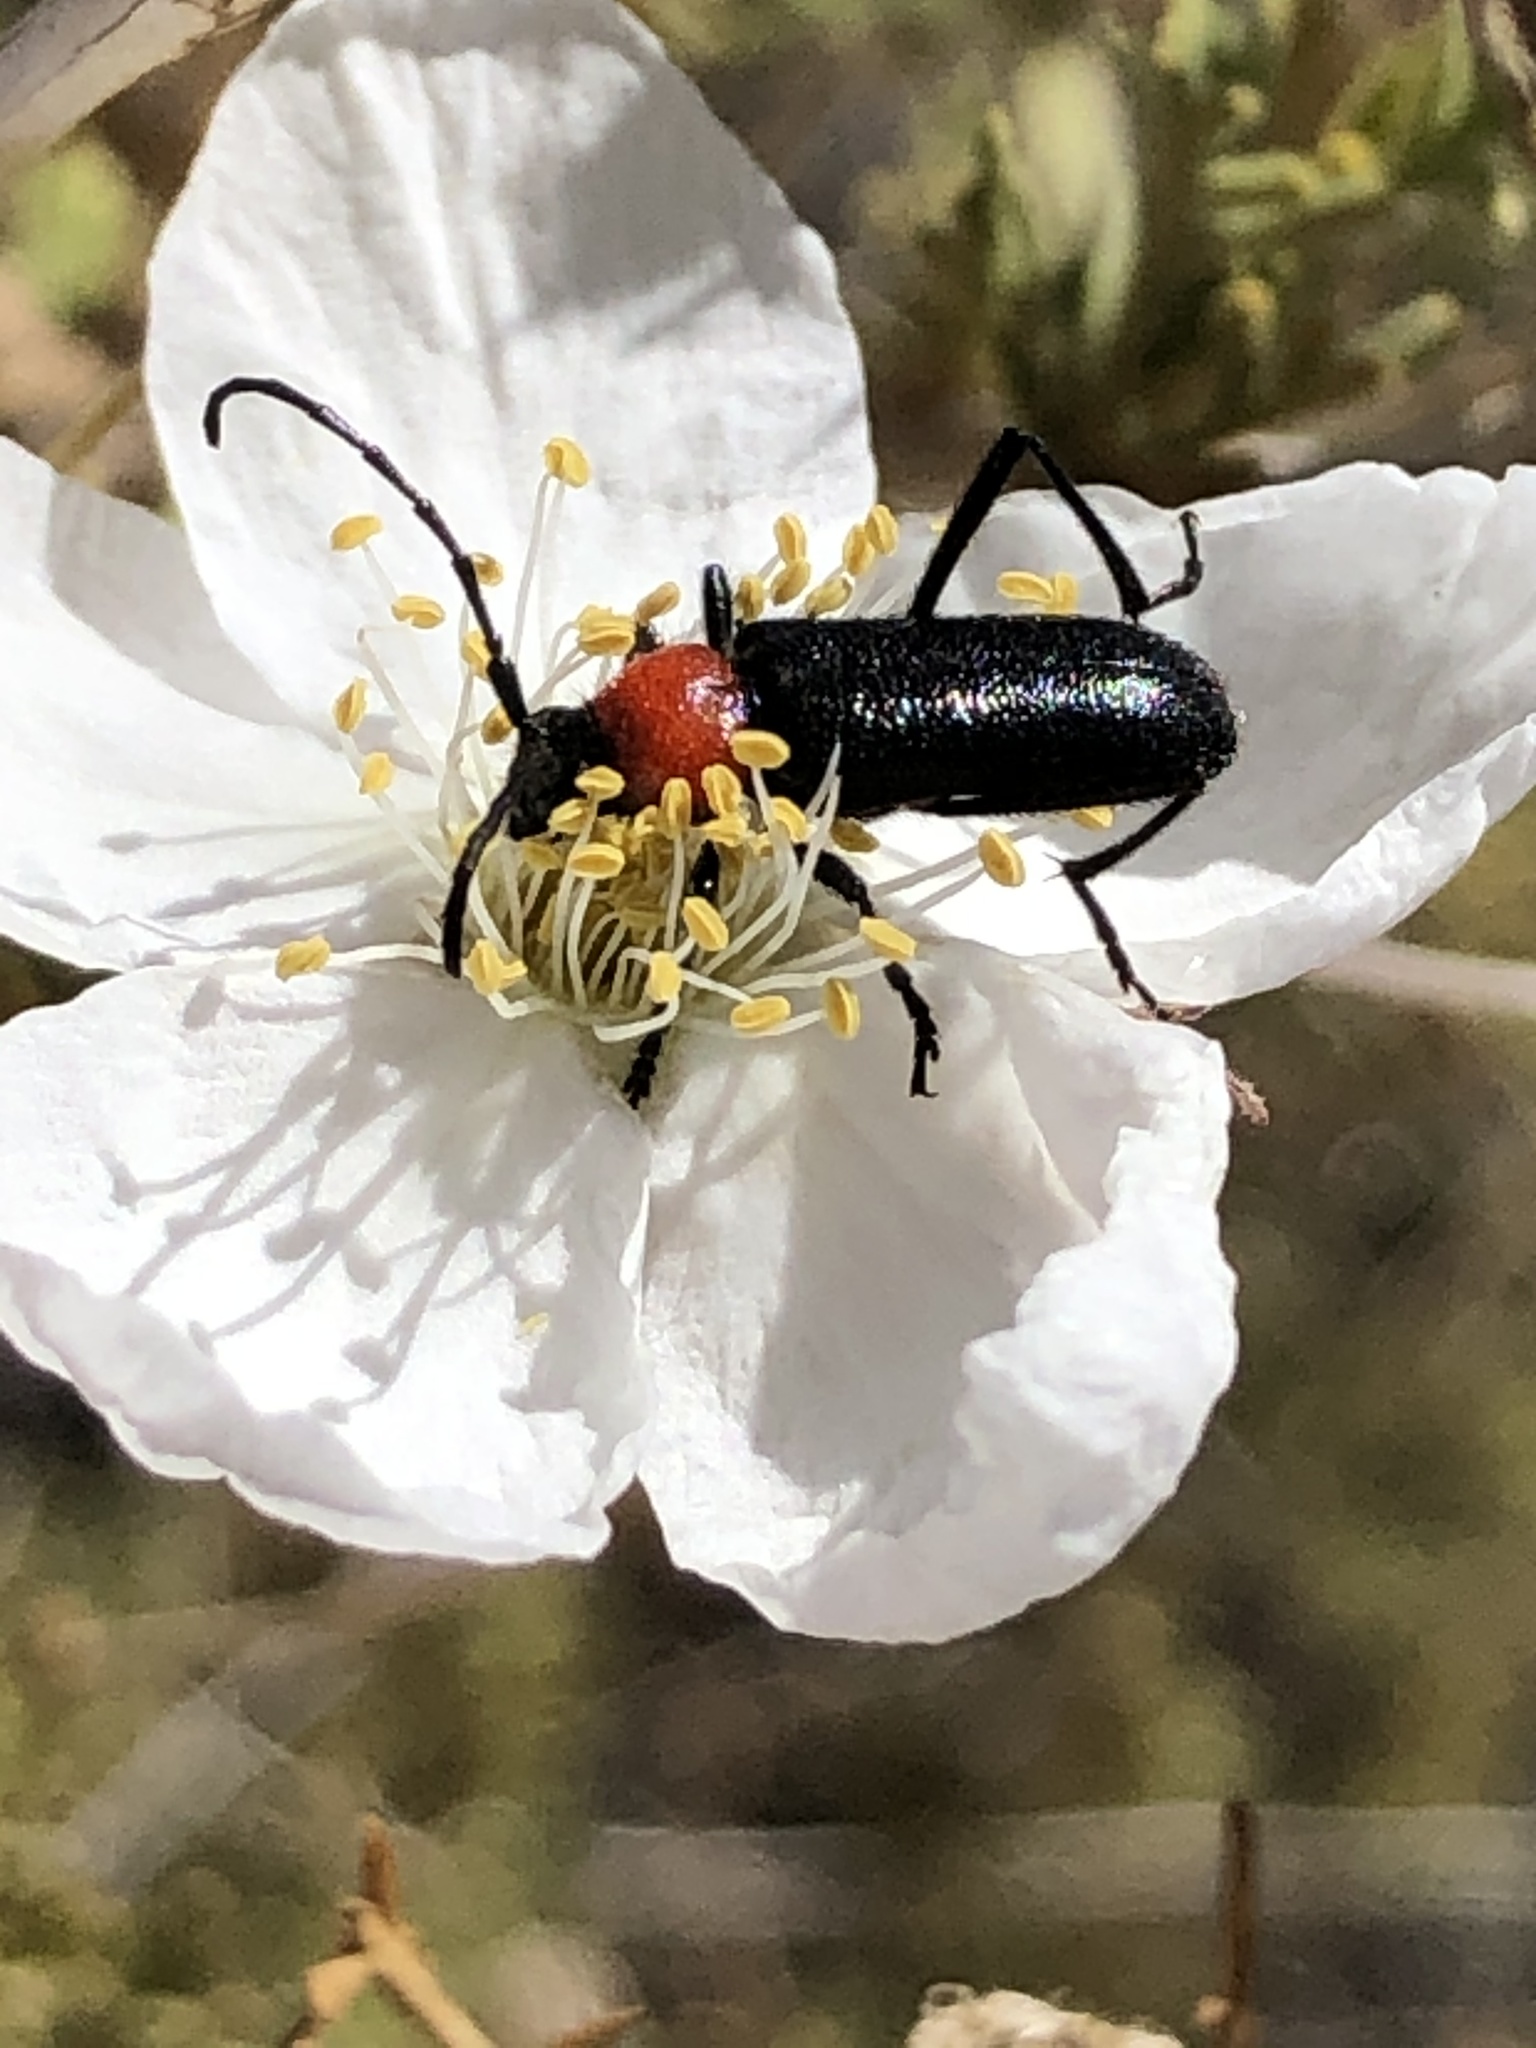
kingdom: Animalia
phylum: Arthropoda
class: Insecta
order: Coleoptera
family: Cerambycidae
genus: Batyle
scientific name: Batyle ignicollis
